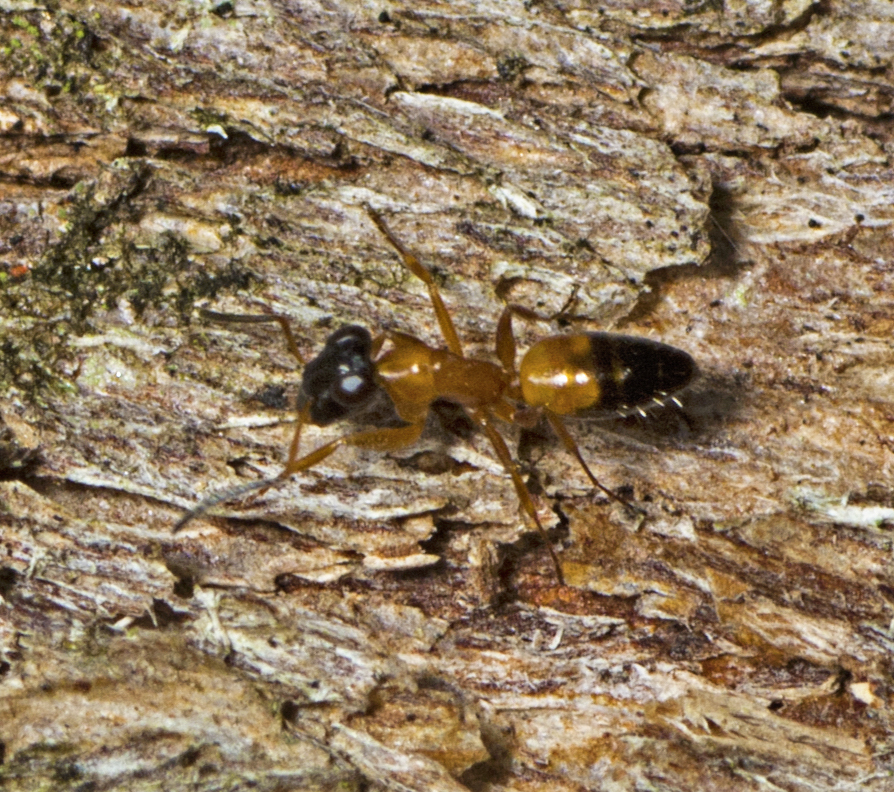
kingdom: Animalia
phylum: Arthropoda
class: Insecta
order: Hymenoptera
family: Formicidae
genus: Opisthopsis
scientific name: Opisthopsis rufithorax
